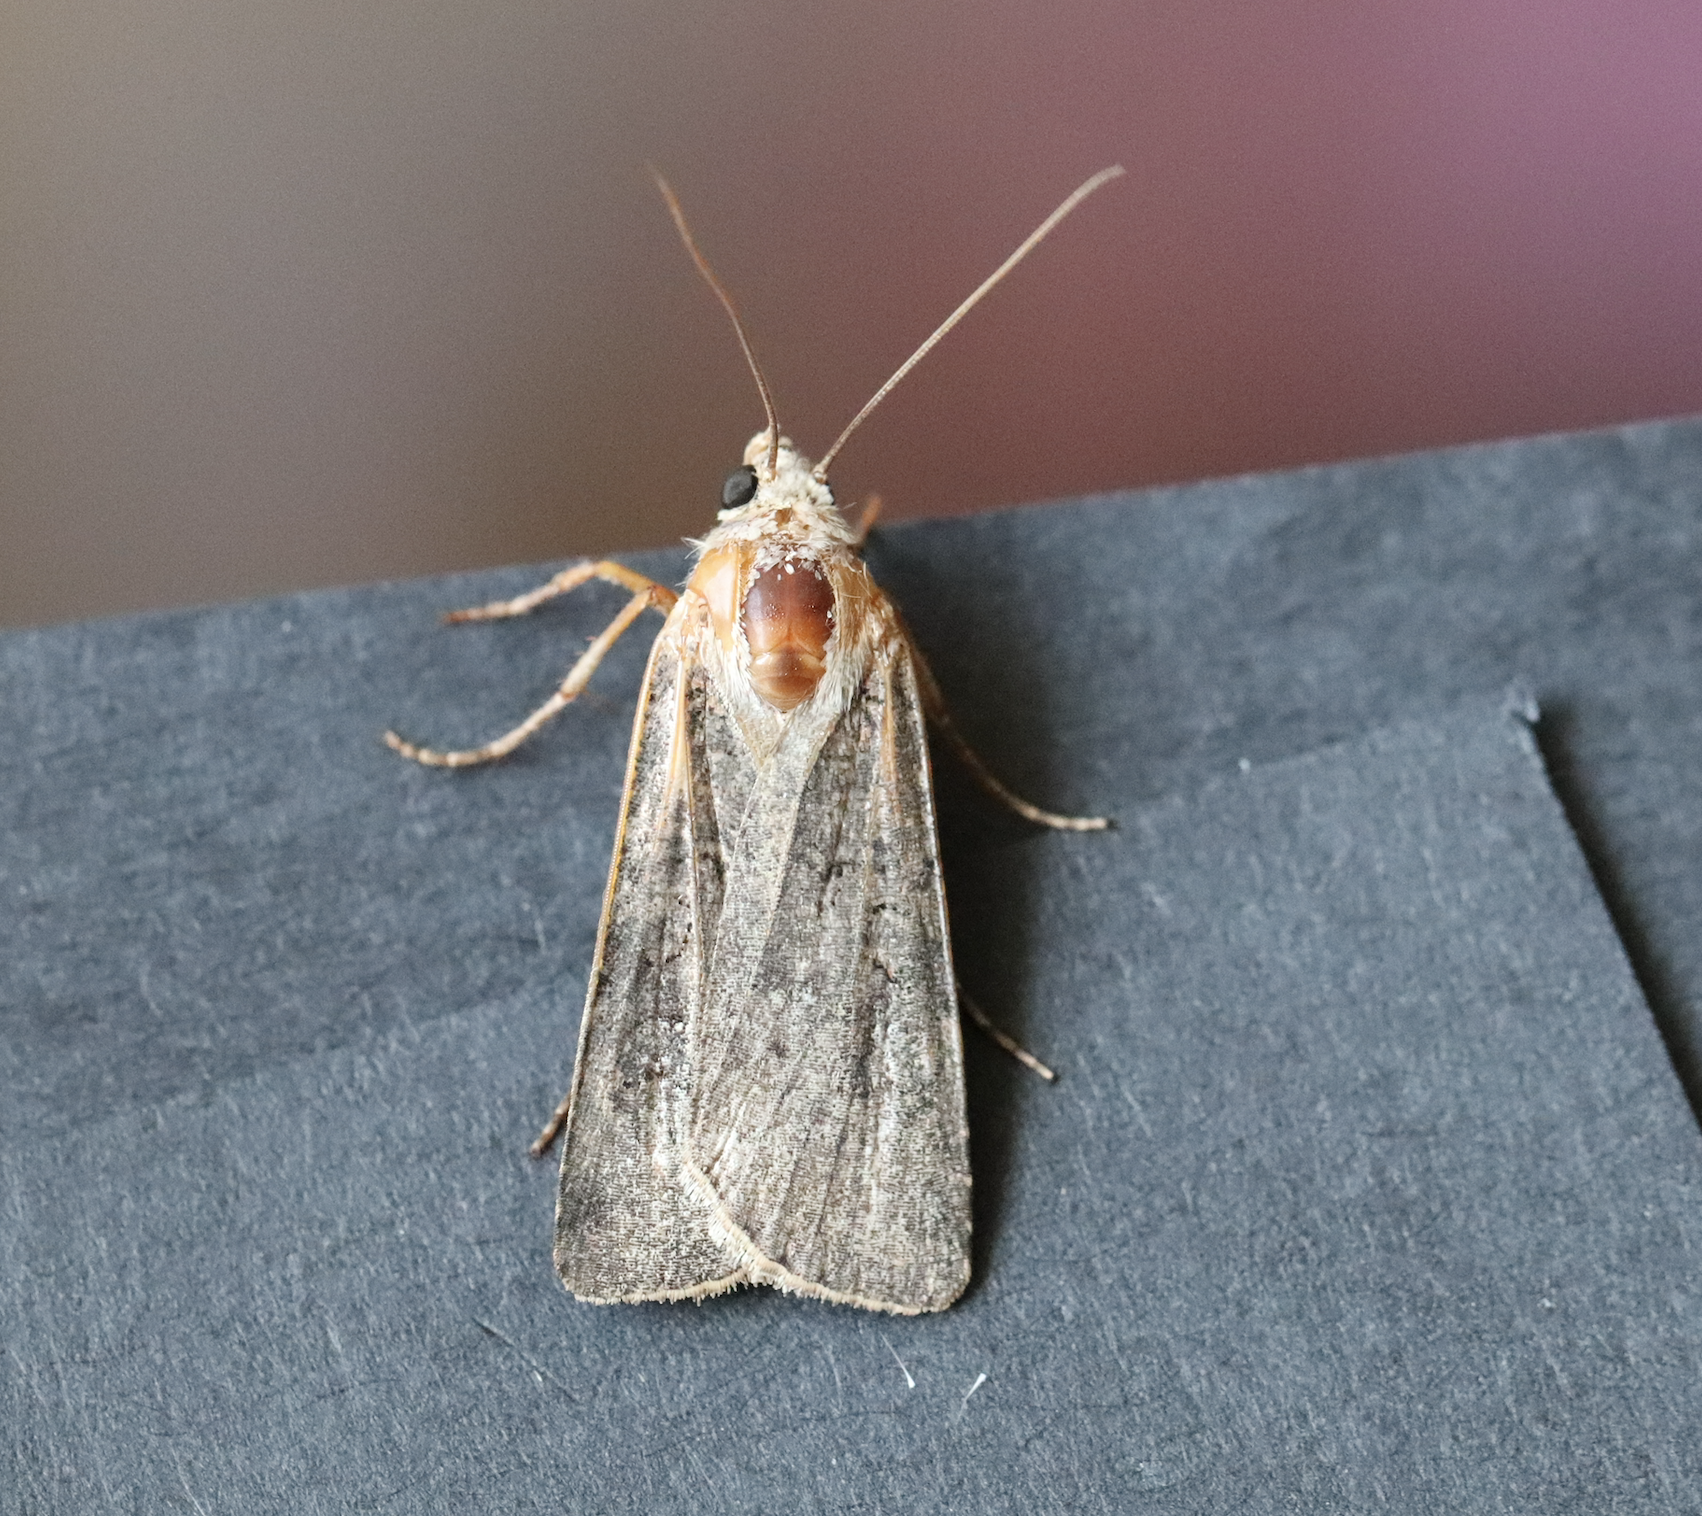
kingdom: Animalia
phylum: Arthropoda
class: Insecta
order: Lepidoptera
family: Noctuidae
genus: Agrotis
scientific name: Agrotis segetum
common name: Turnip moth
